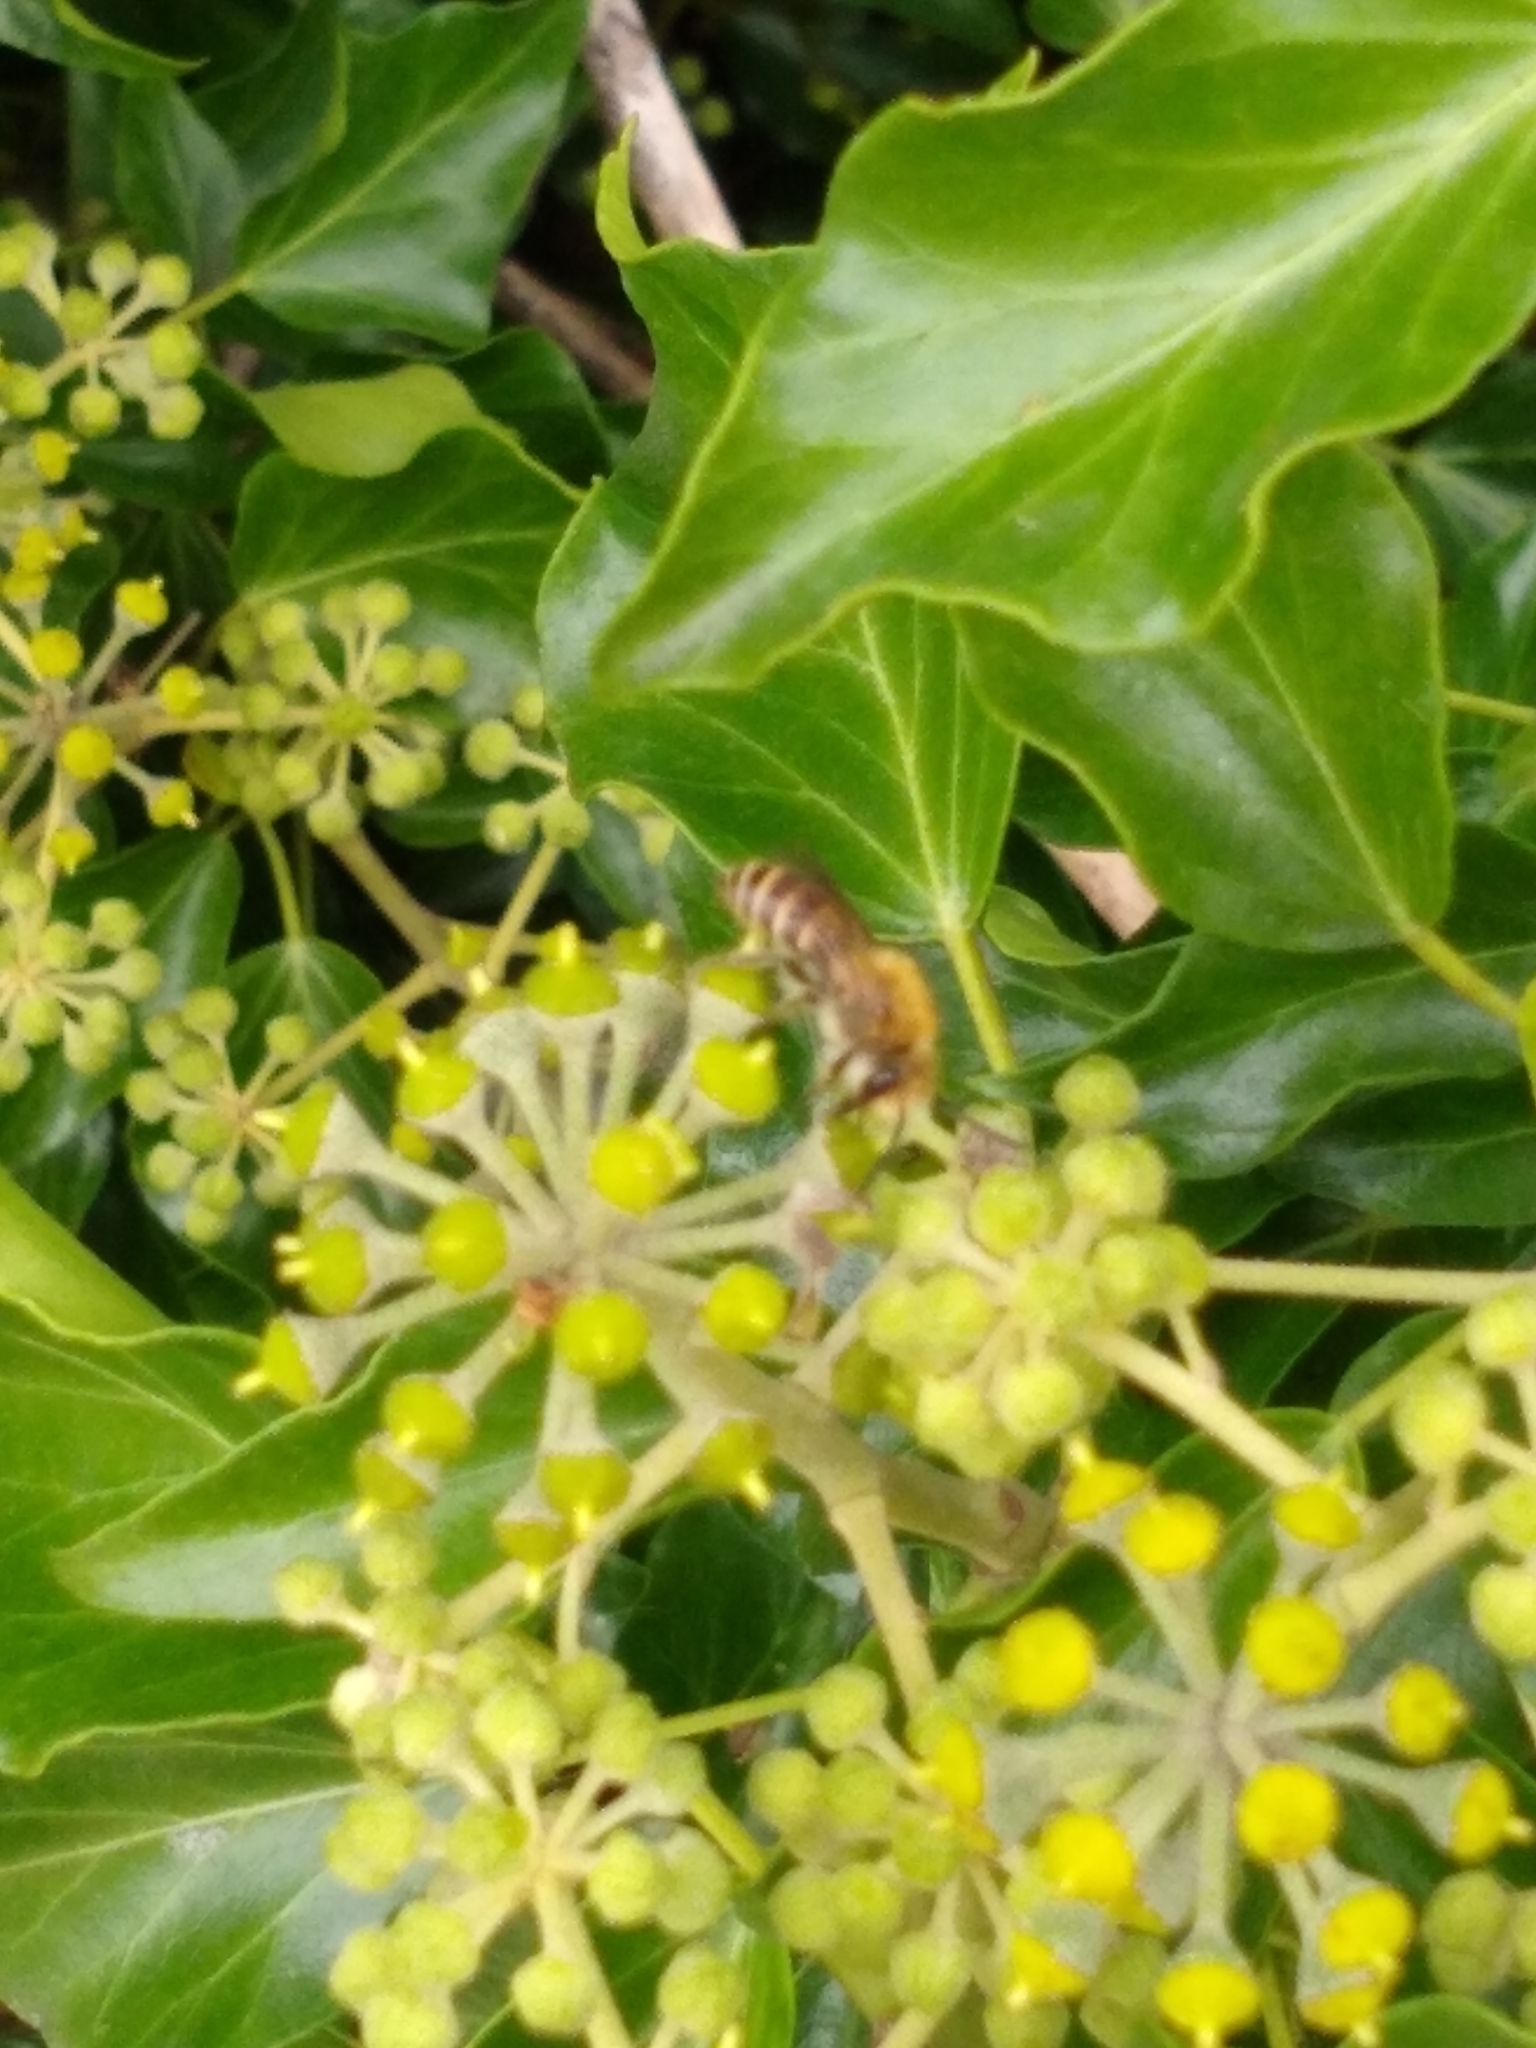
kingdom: Animalia
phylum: Arthropoda
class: Insecta
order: Hymenoptera
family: Colletidae
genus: Colletes
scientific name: Colletes hederae
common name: Ivy bee
